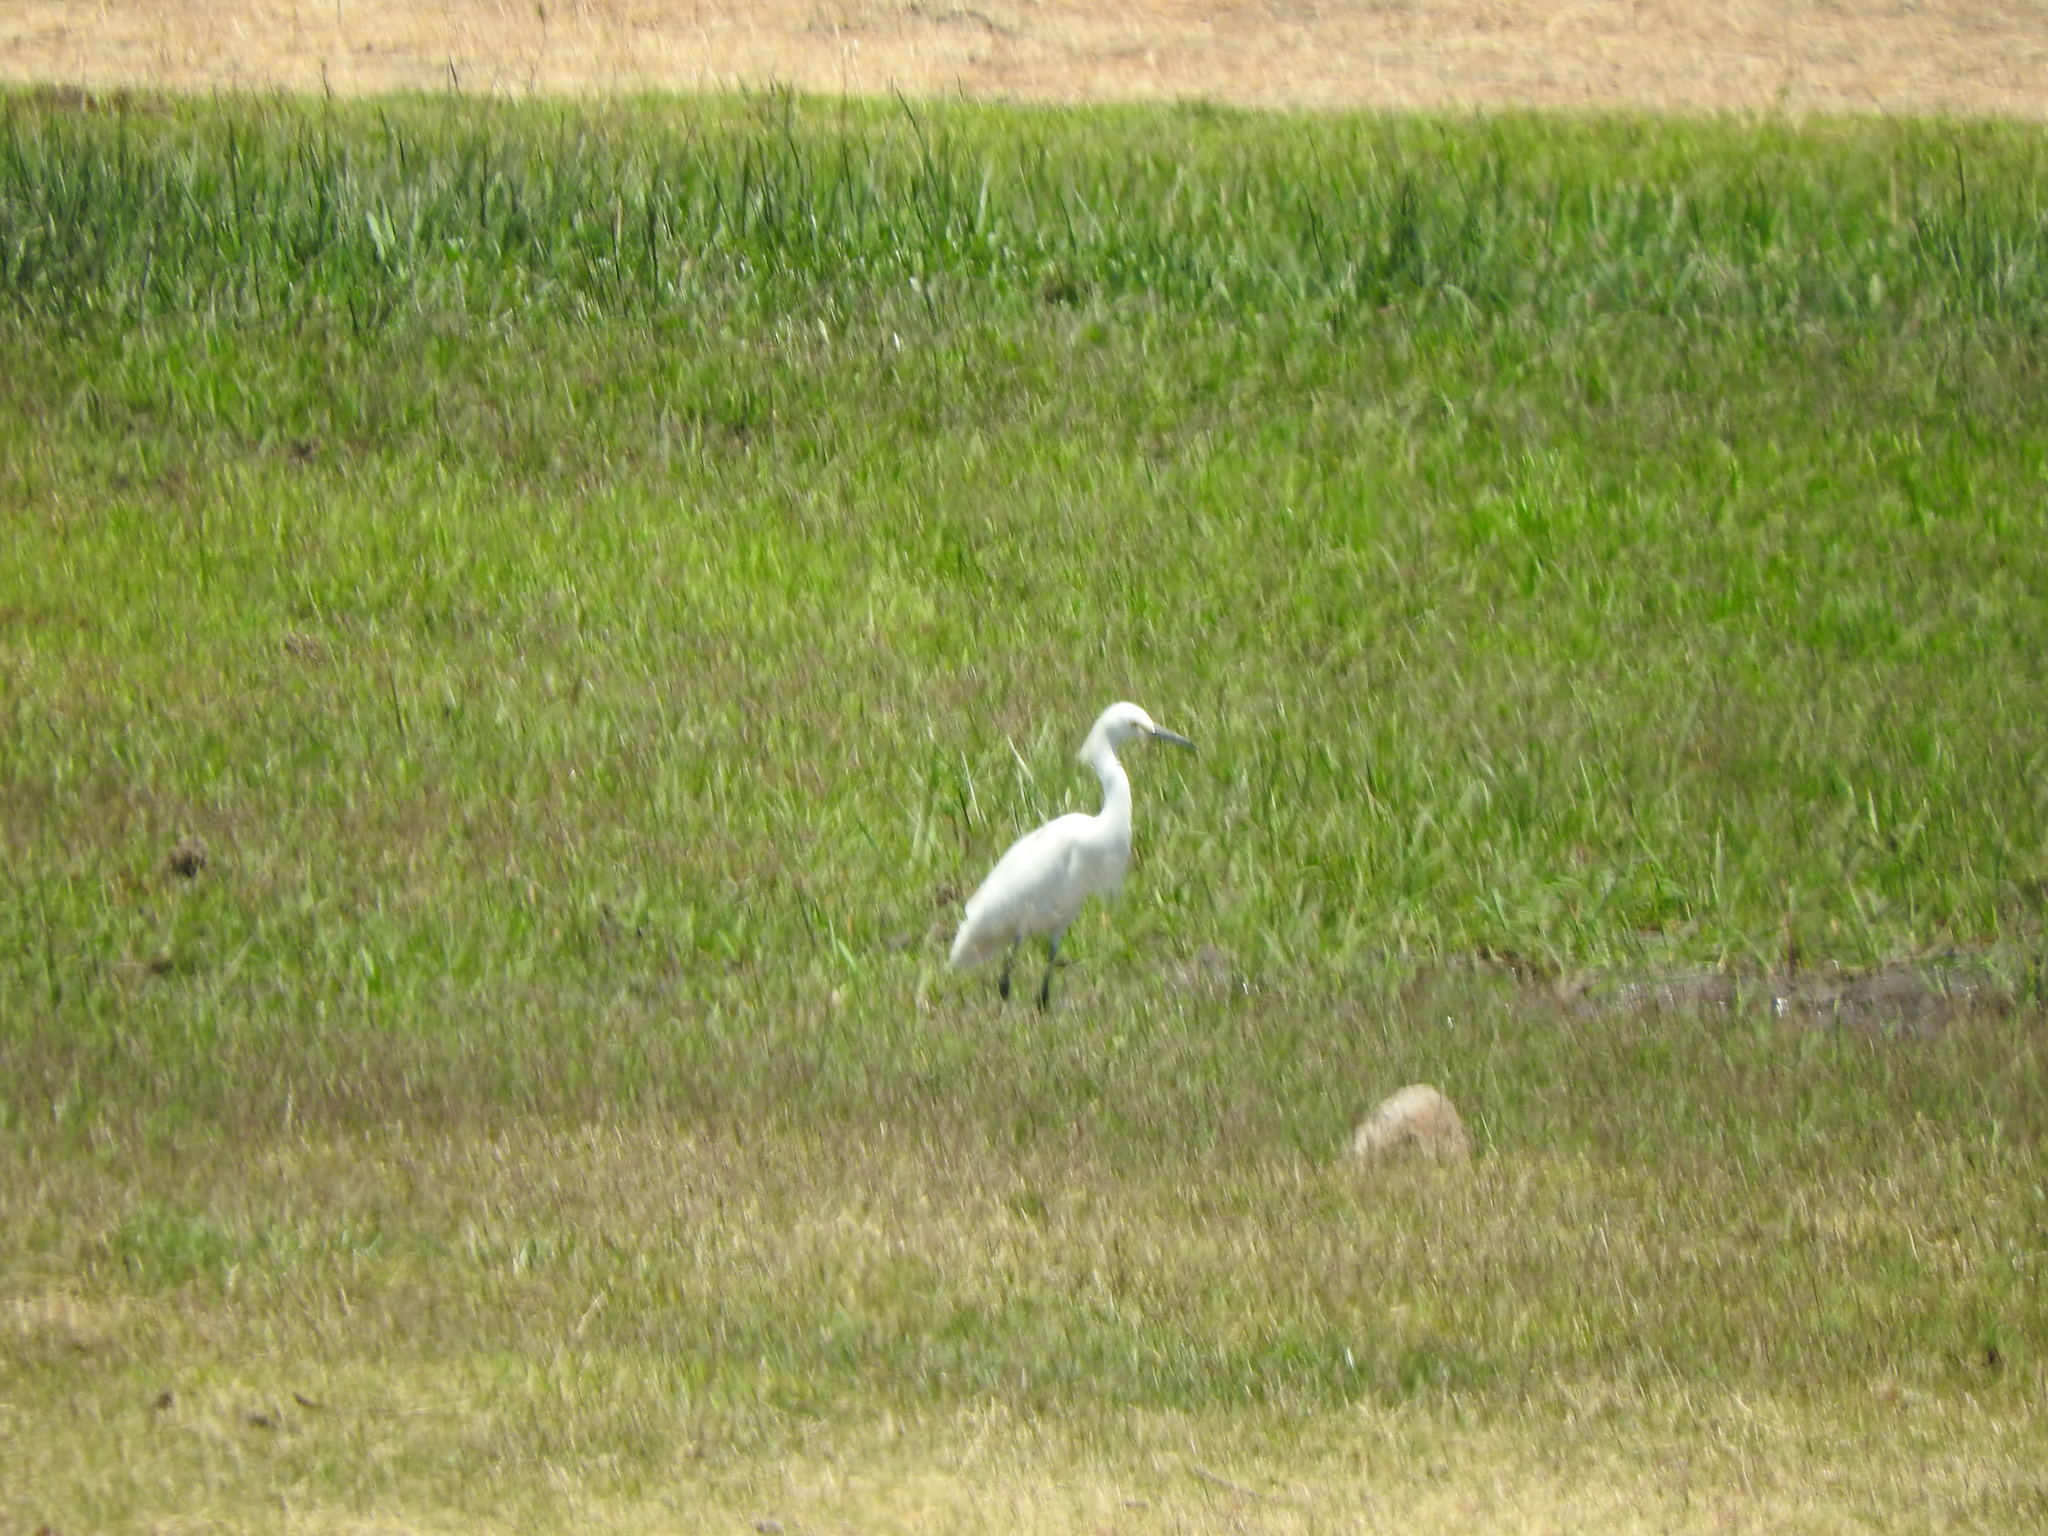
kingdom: Animalia
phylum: Chordata
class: Aves
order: Pelecaniformes
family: Ardeidae
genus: Egretta
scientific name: Egretta thula
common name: Snowy egret
